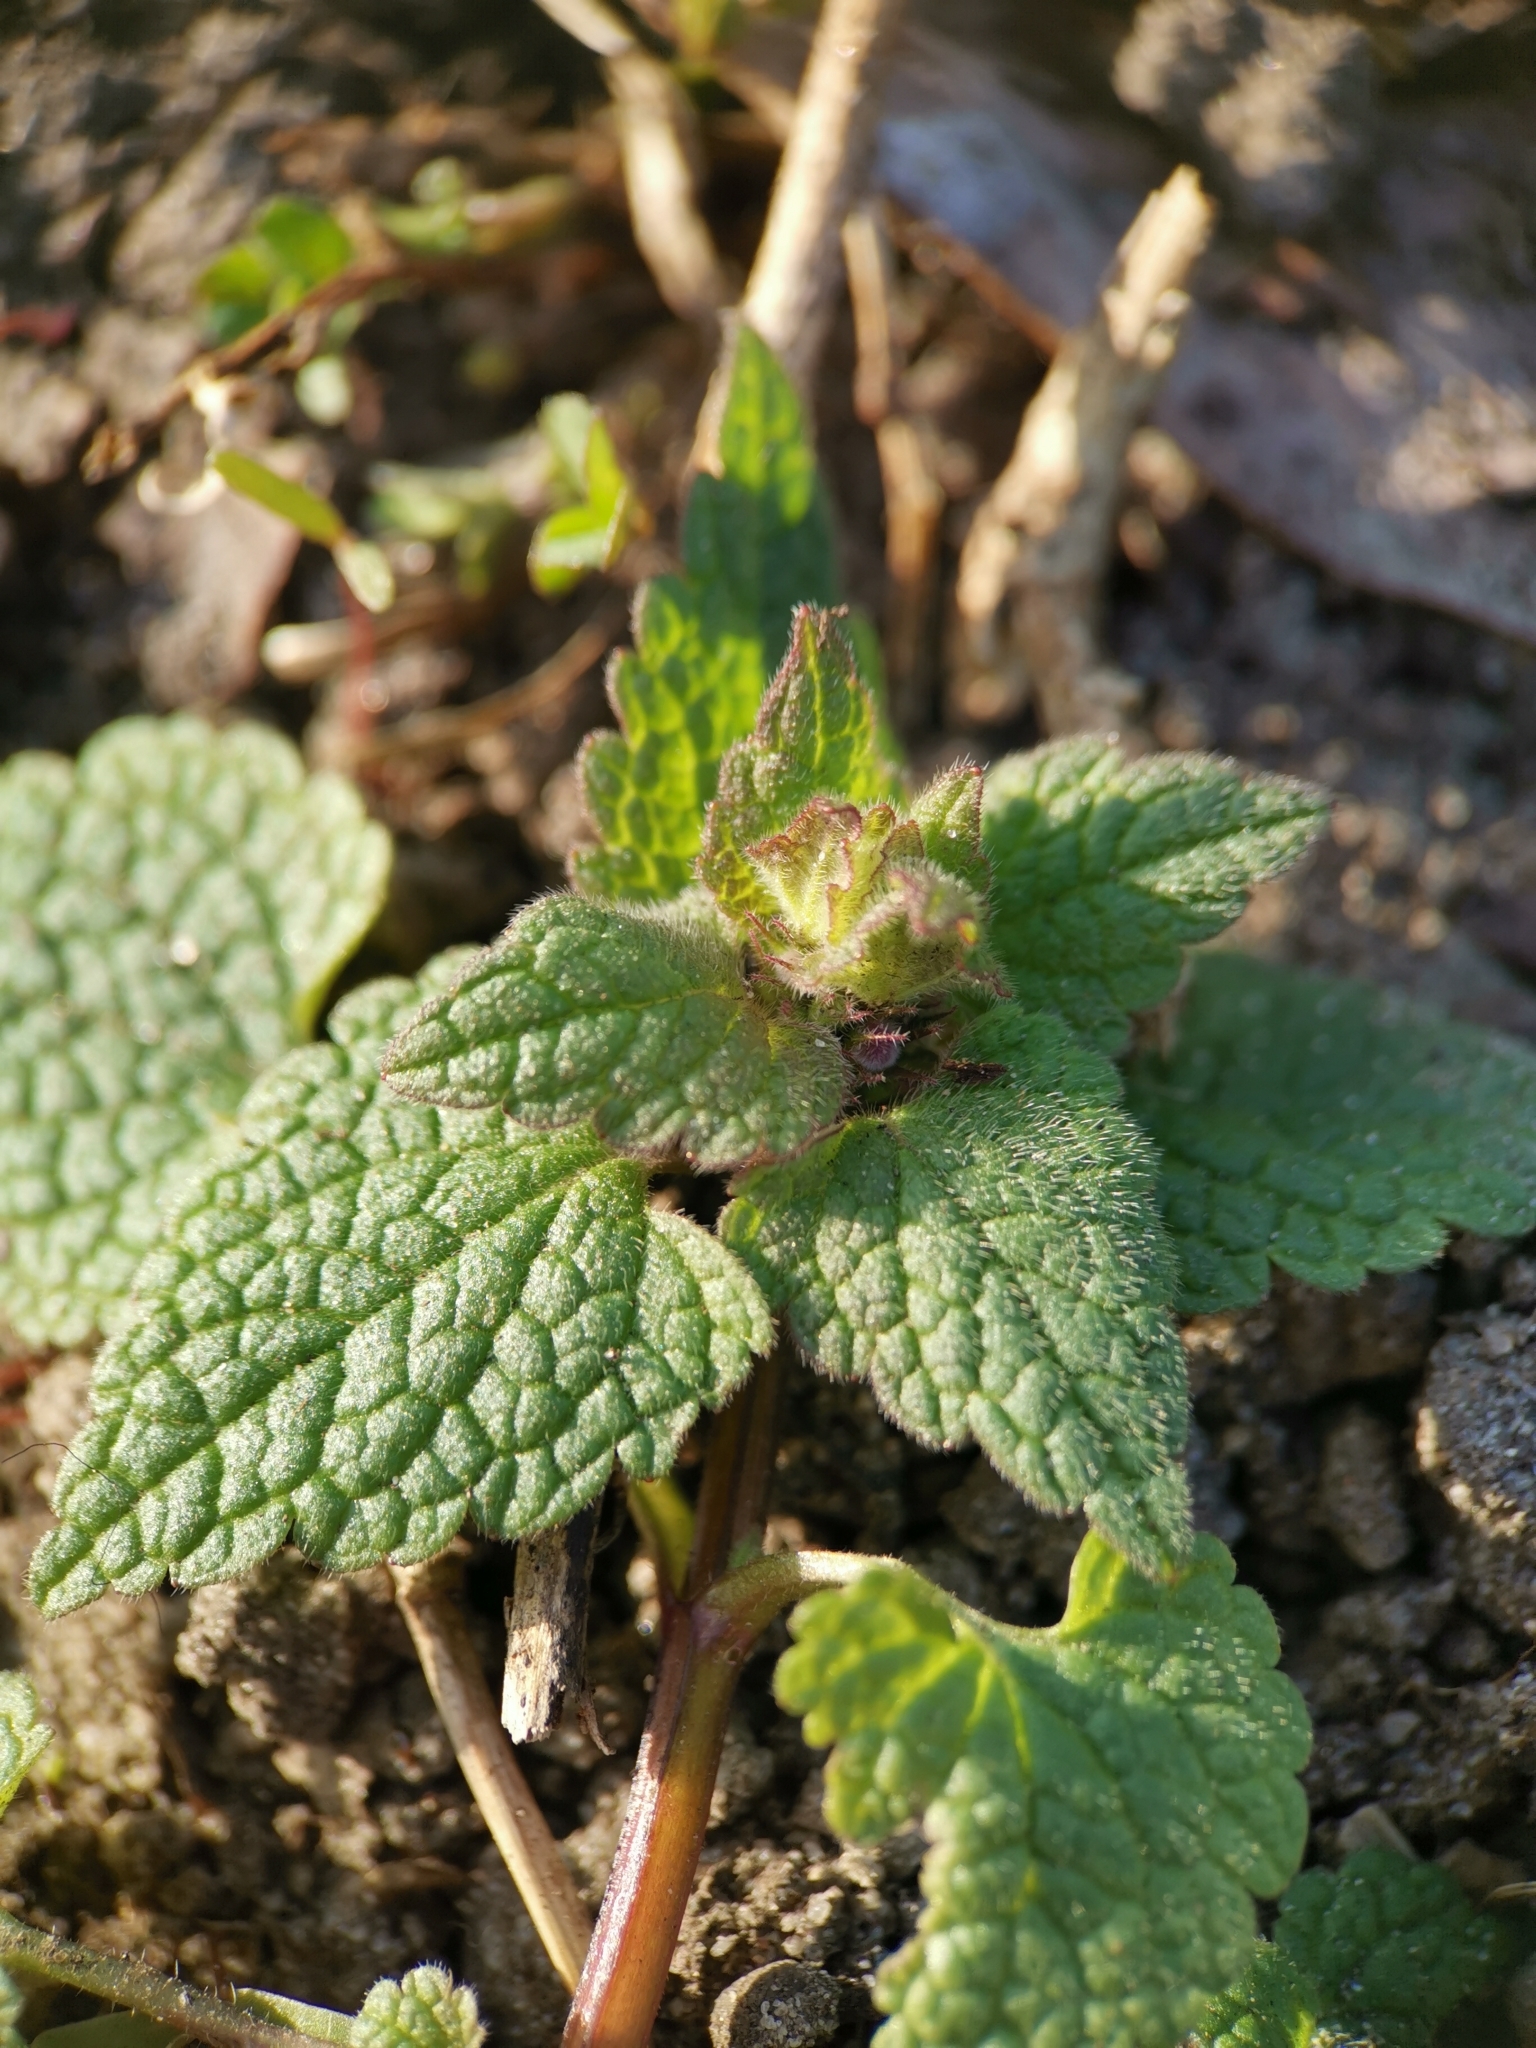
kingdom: Plantae
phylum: Tracheophyta
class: Magnoliopsida
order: Lamiales
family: Lamiaceae
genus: Lamium
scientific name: Lamium purpureum
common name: Red dead-nettle
